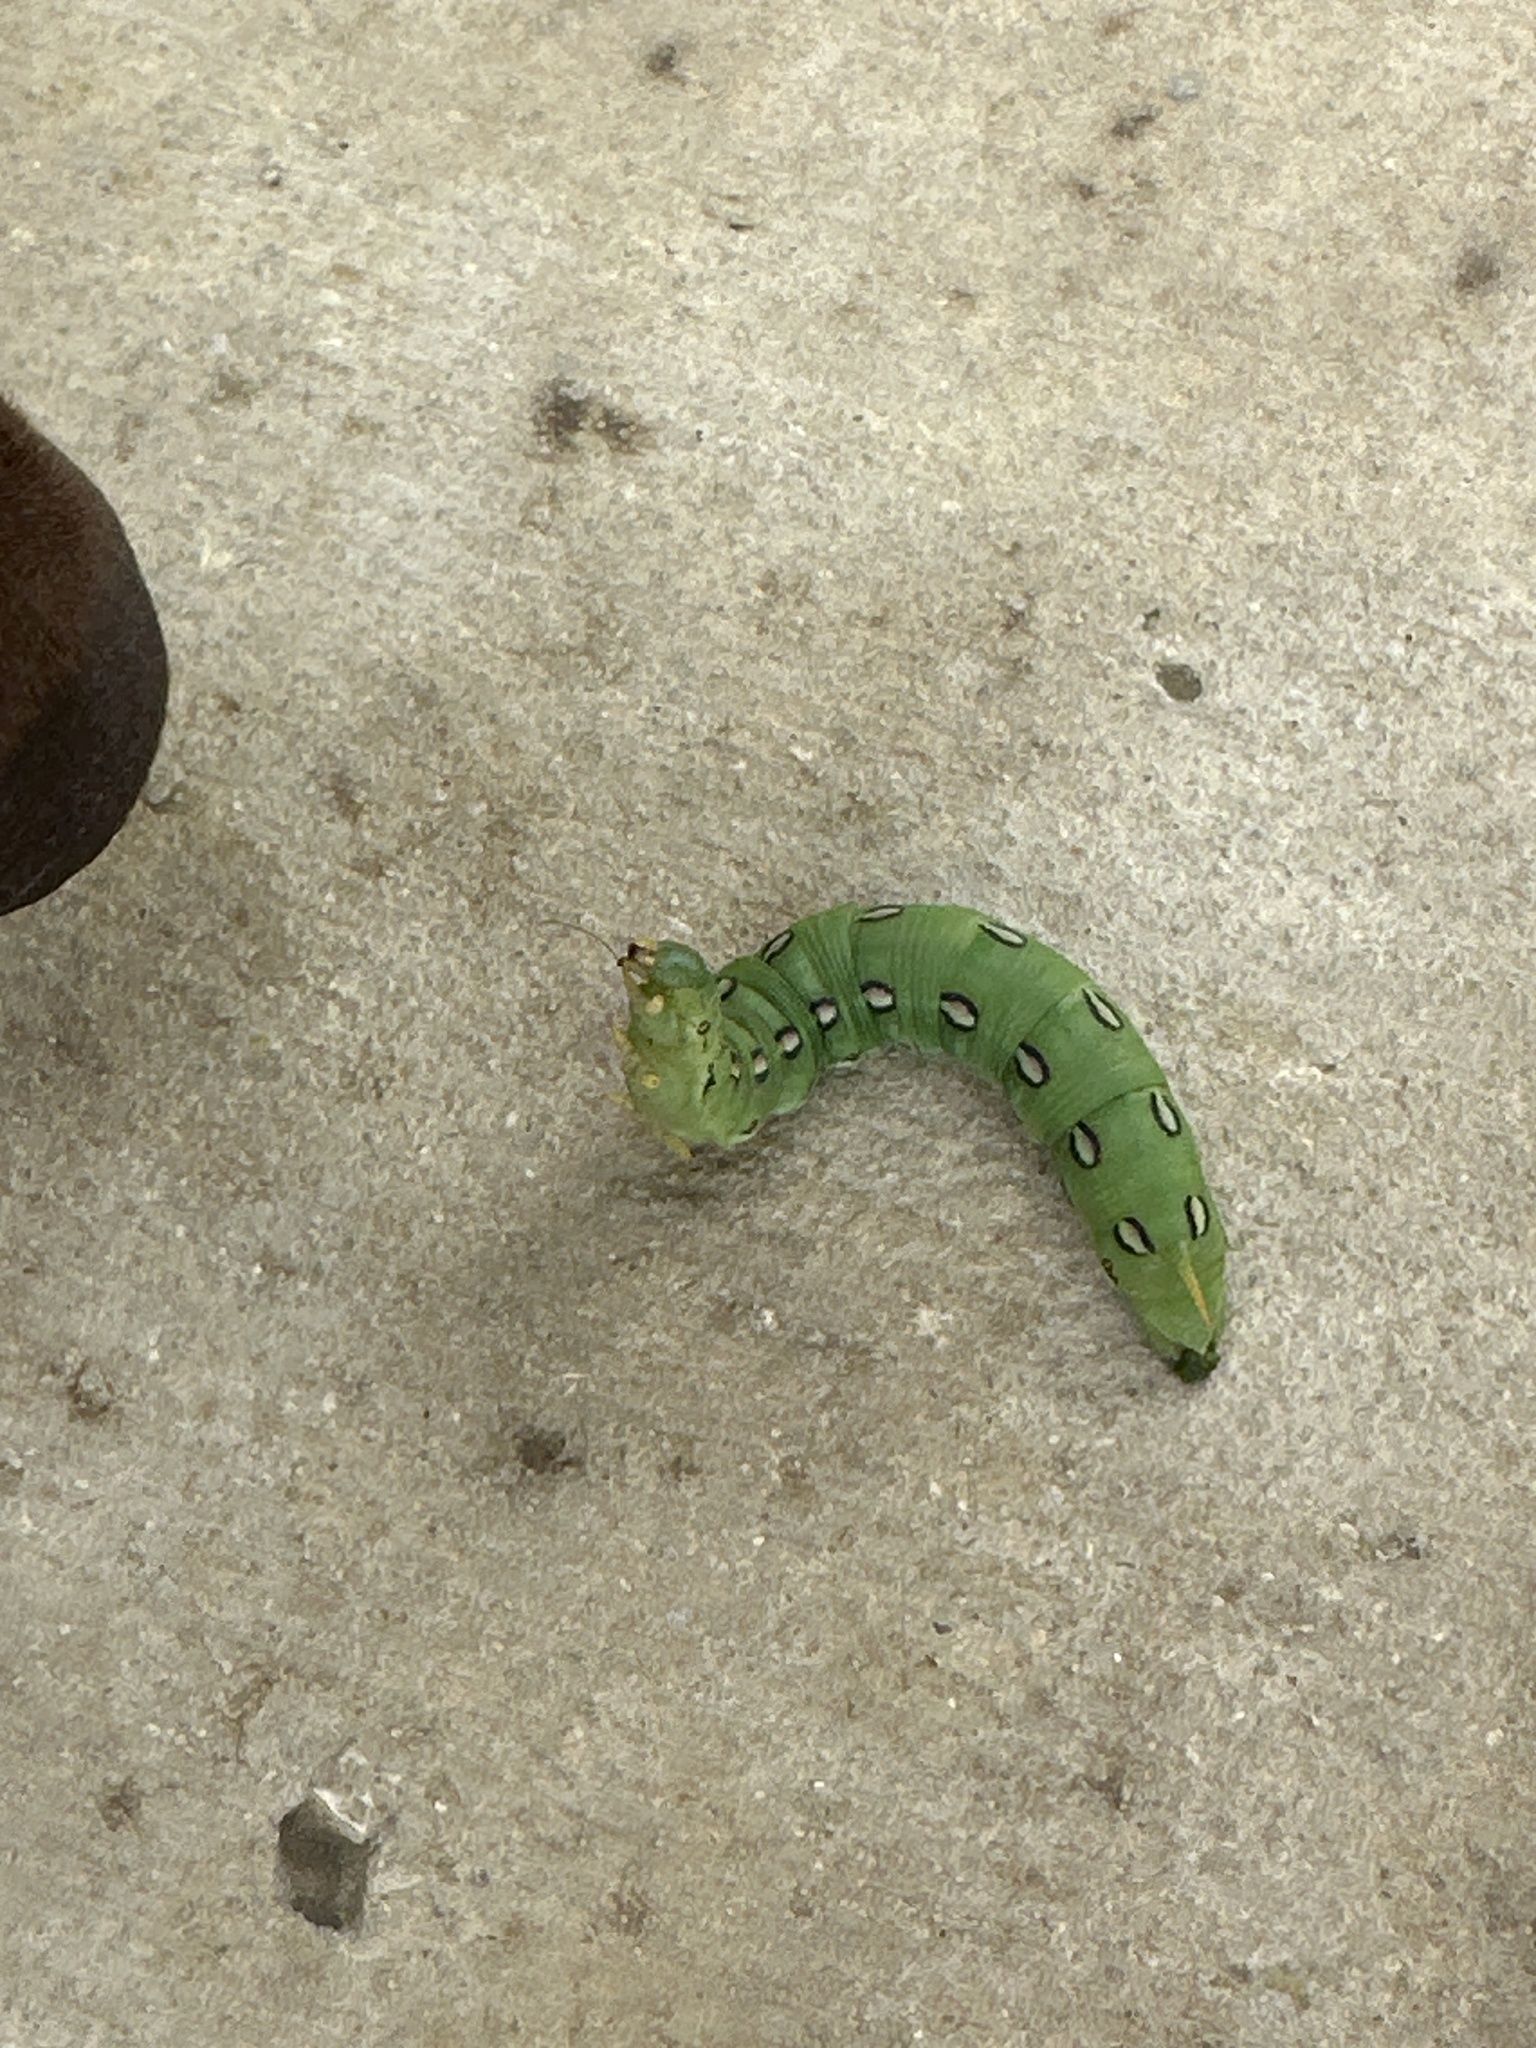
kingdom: Animalia
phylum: Arthropoda
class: Insecta
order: Lepidoptera
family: Sphingidae
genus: Hyles
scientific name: Hyles lineata
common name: White-lined sphinx
